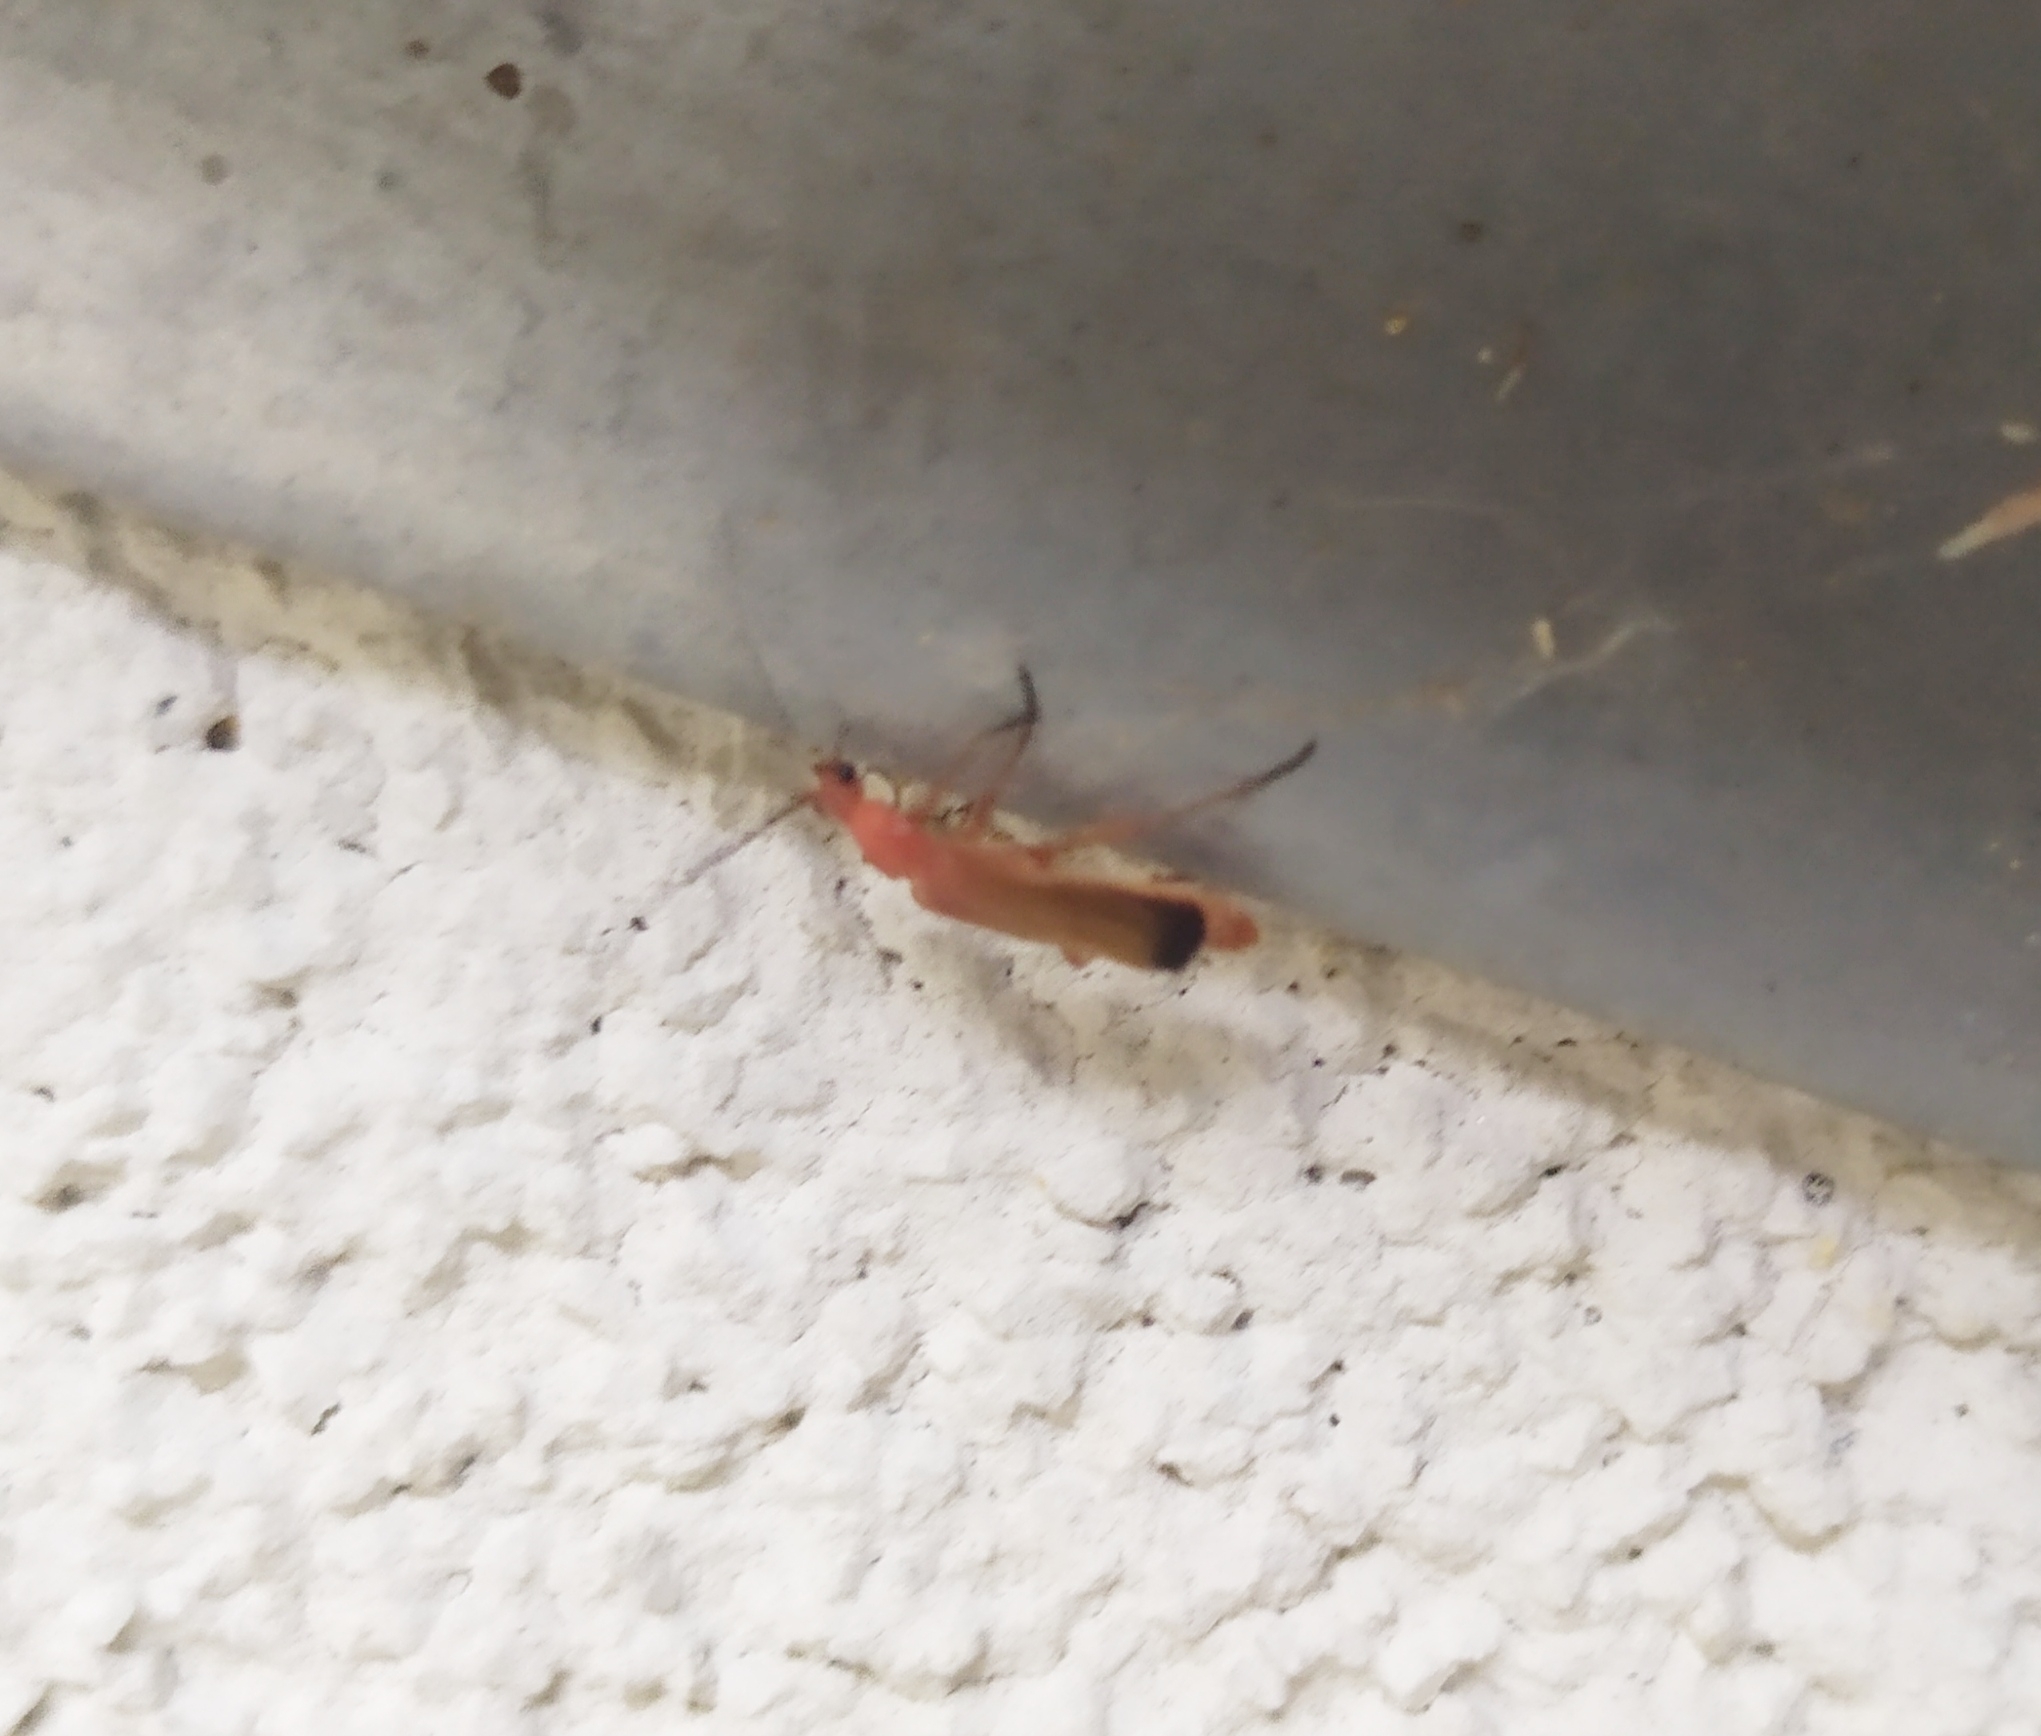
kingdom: Animalia
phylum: Arthropoda
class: Insecta
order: Coleoptera
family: Cantharidae
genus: Rhagonycha
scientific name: Rhagonycha fulva
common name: Common red soldier beetle
